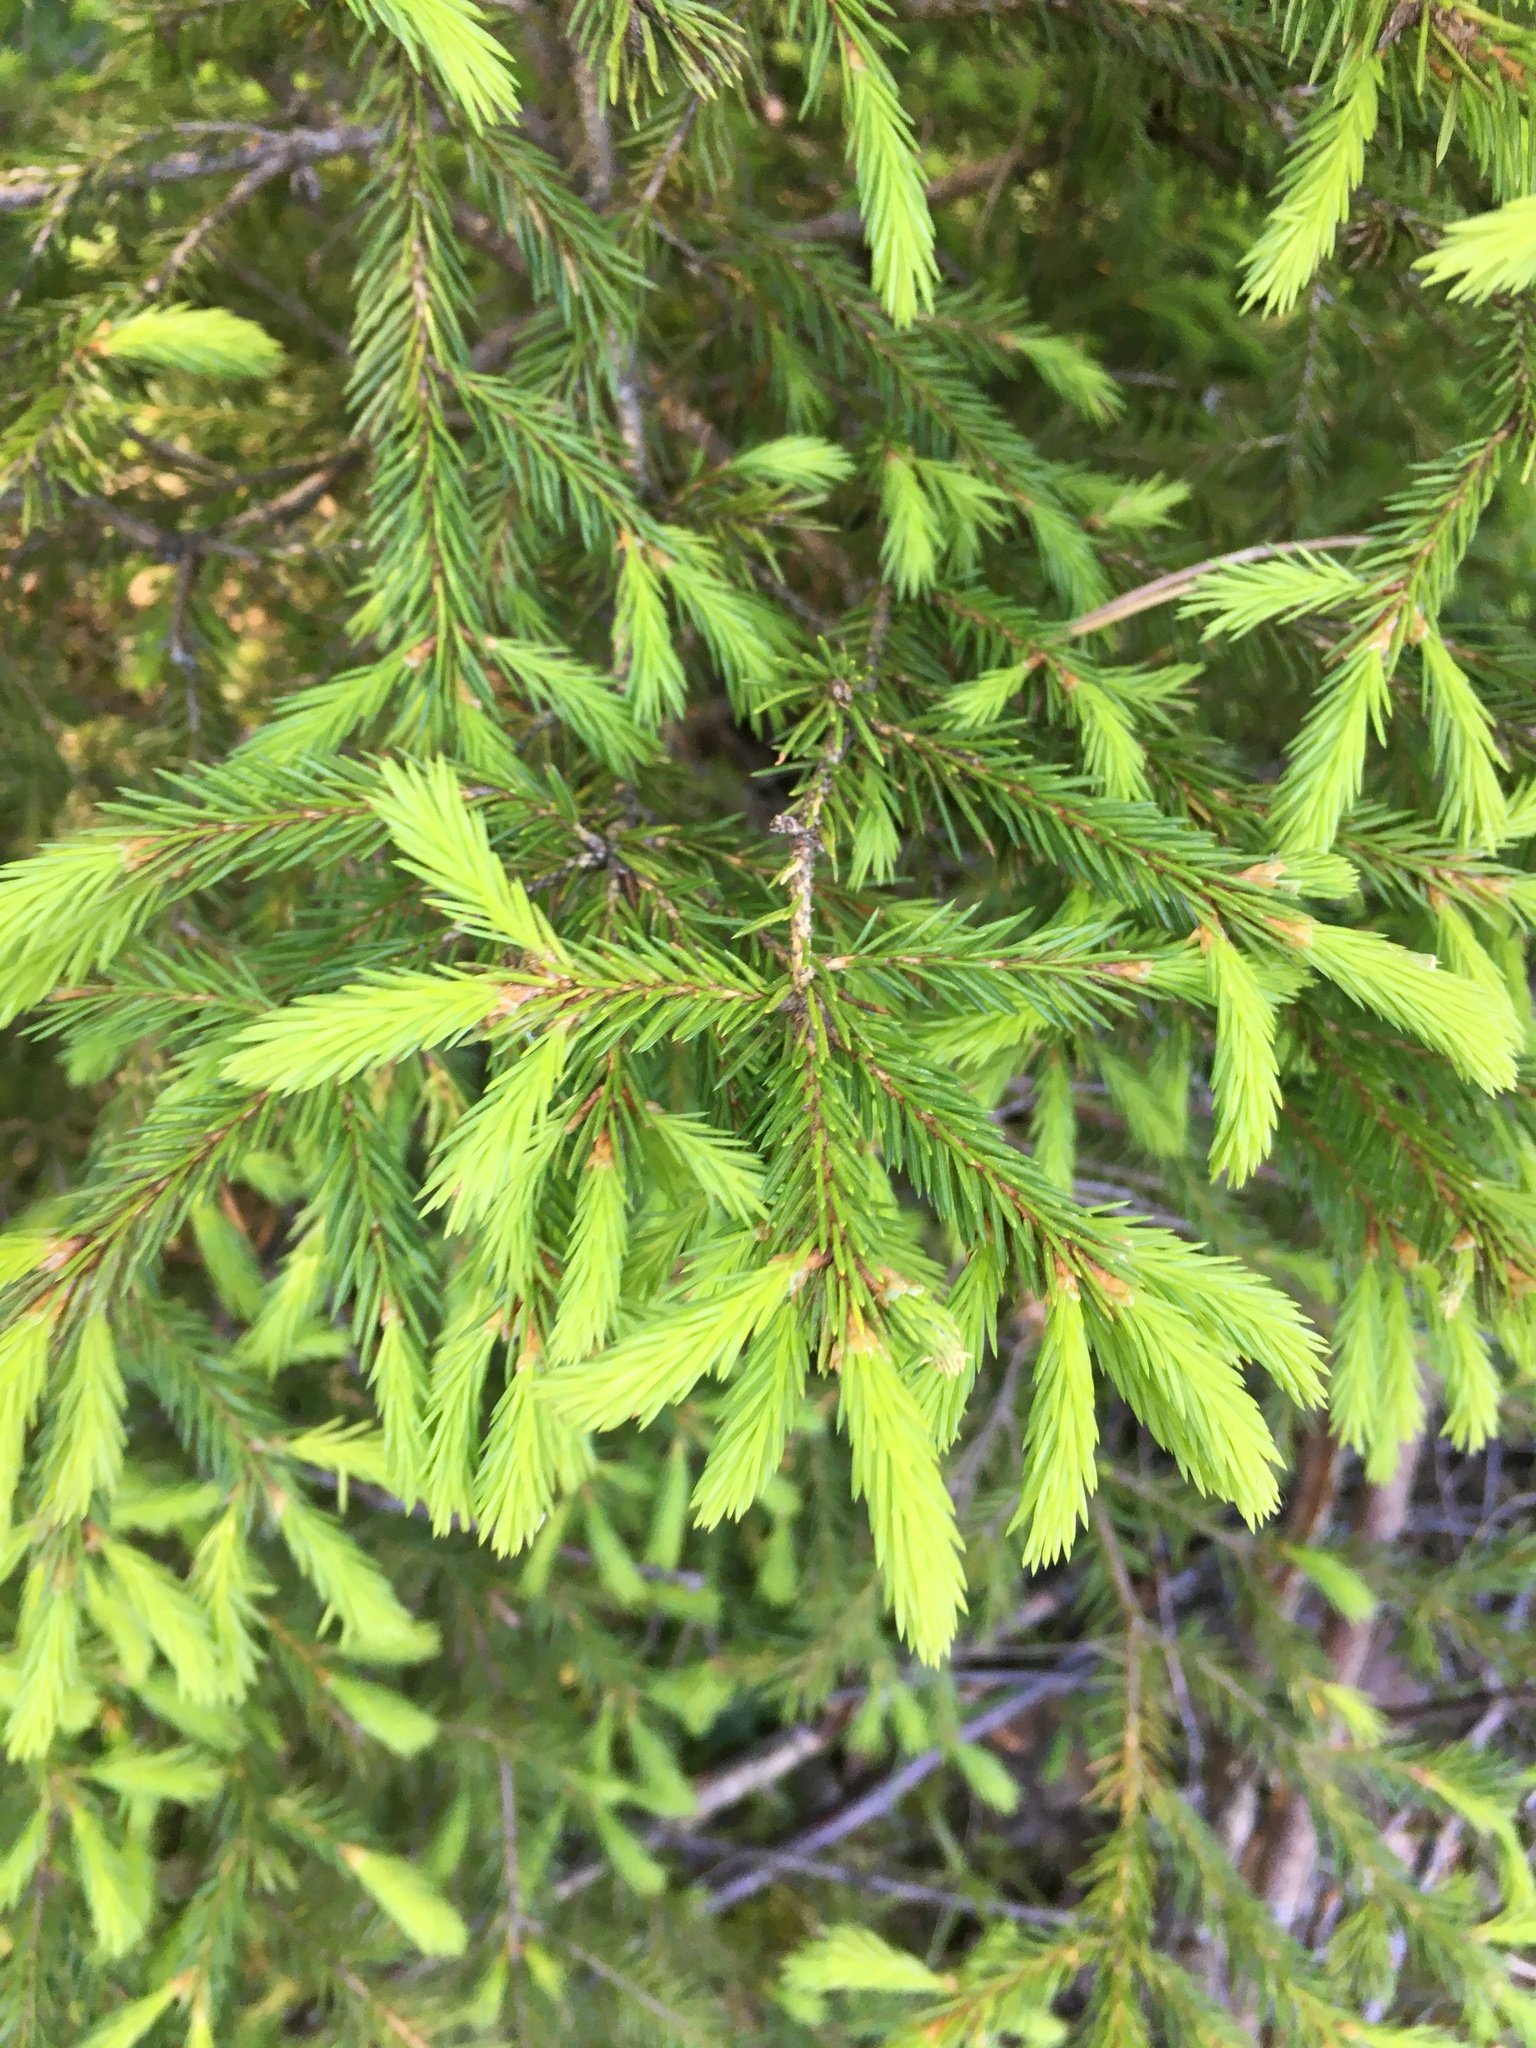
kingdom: Plantae
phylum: Tracheophyta
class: Pinopsida
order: Pinales
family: Pinaceae
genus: Picea
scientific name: Picea
